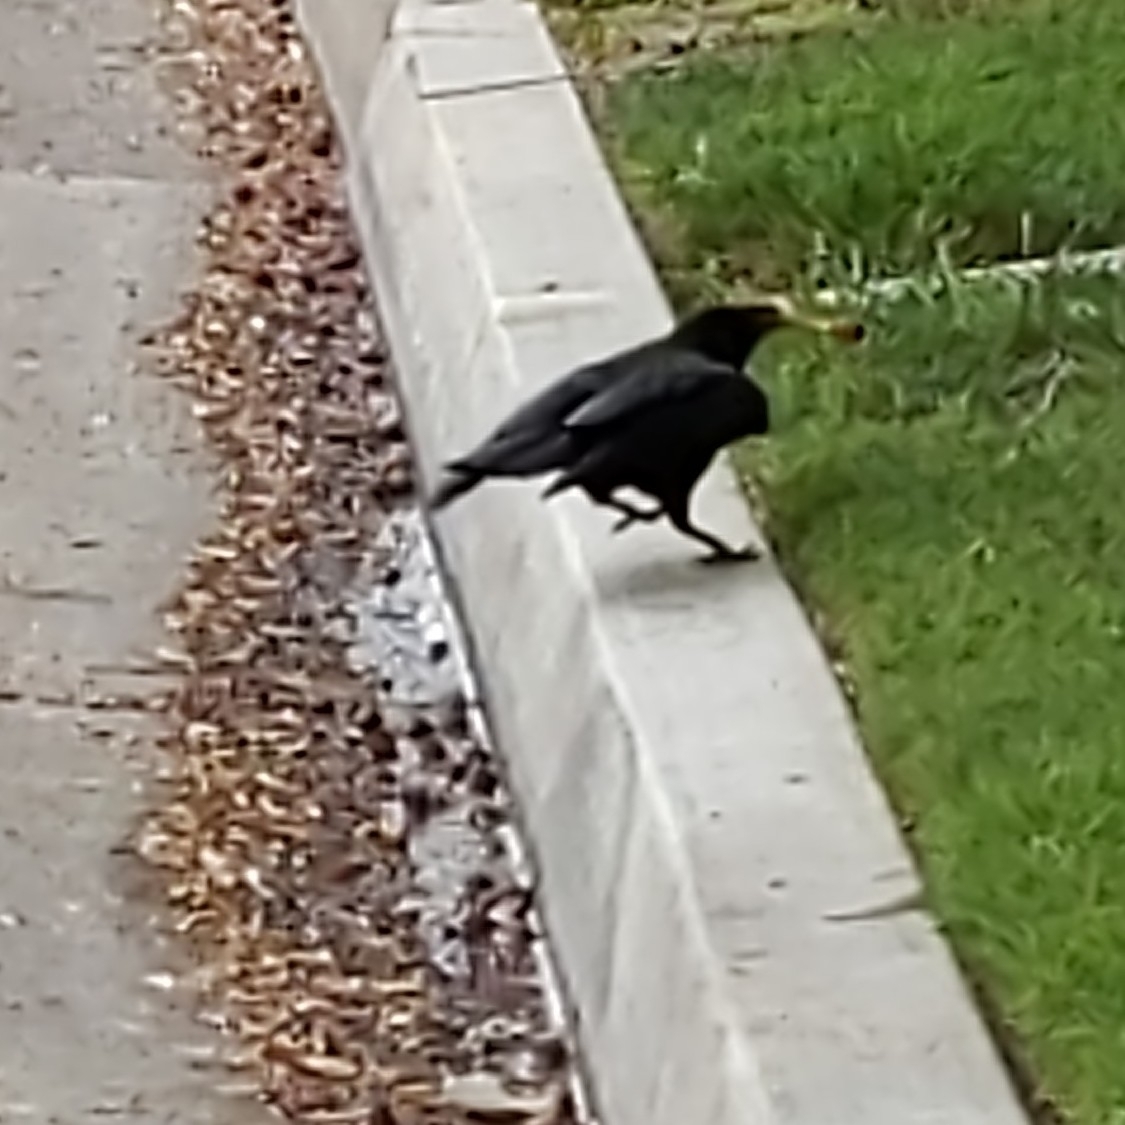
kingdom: Animalia
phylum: Chordata
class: Aves
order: Passeriformes
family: Corvidae
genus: Corvus
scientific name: Corvus brachyrhynchos
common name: American crow
